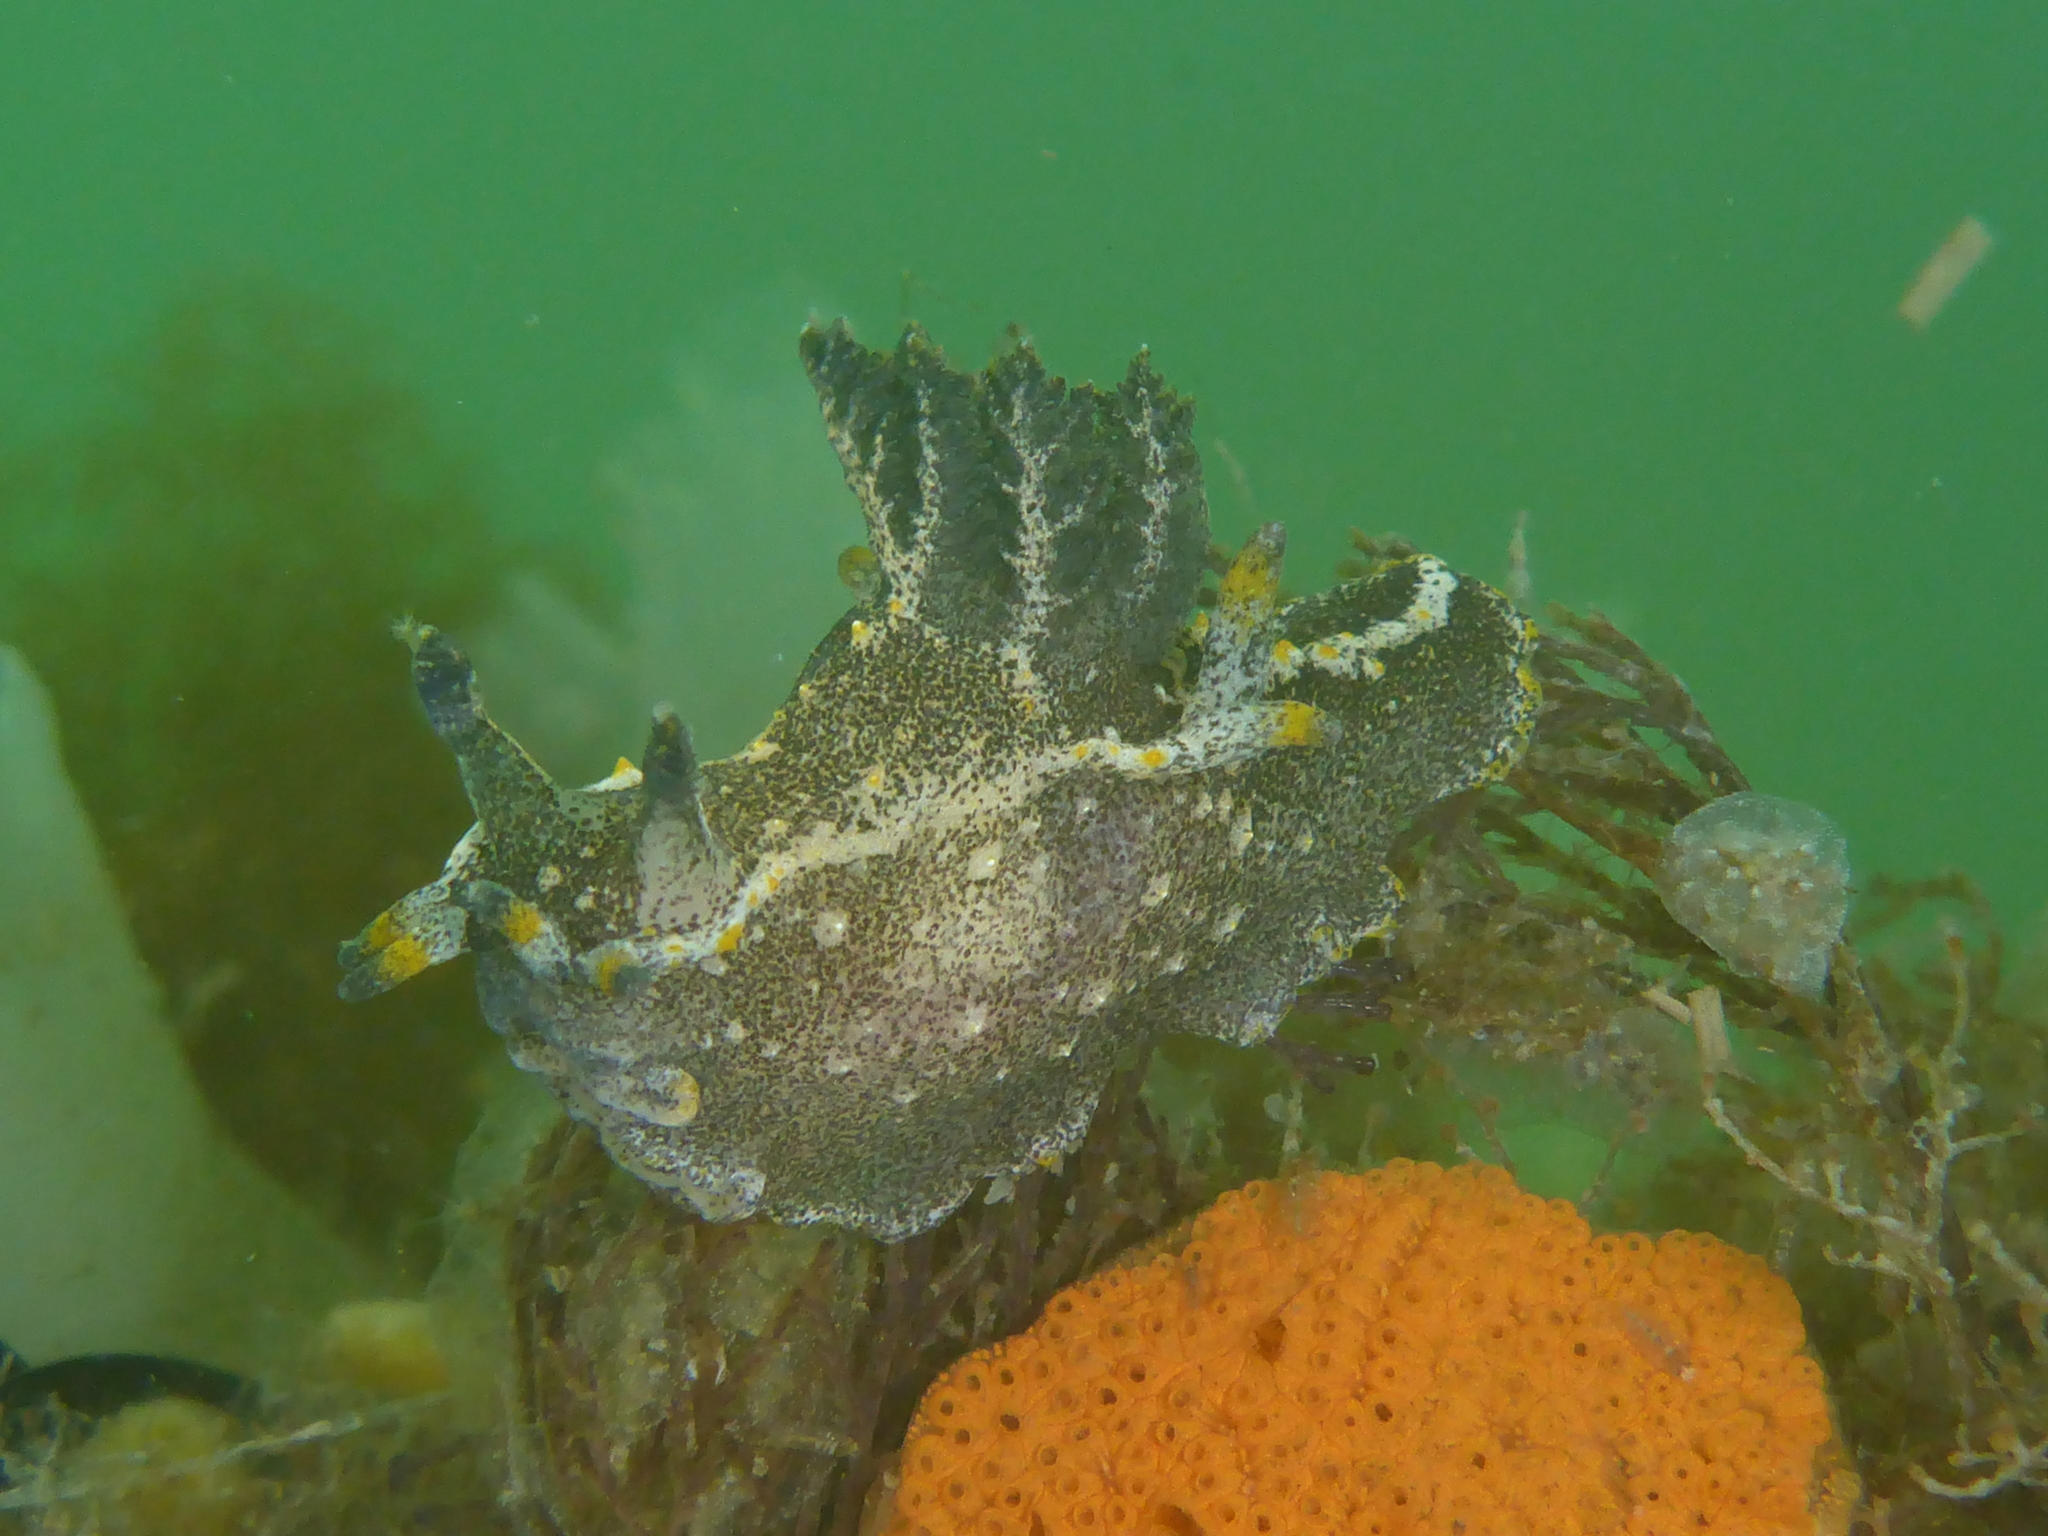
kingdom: Animalia
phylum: Mollusca
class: Gastropoda
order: Nudibranchia
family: Polyceridae
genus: Polycera
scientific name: Polycera hedgpethi
